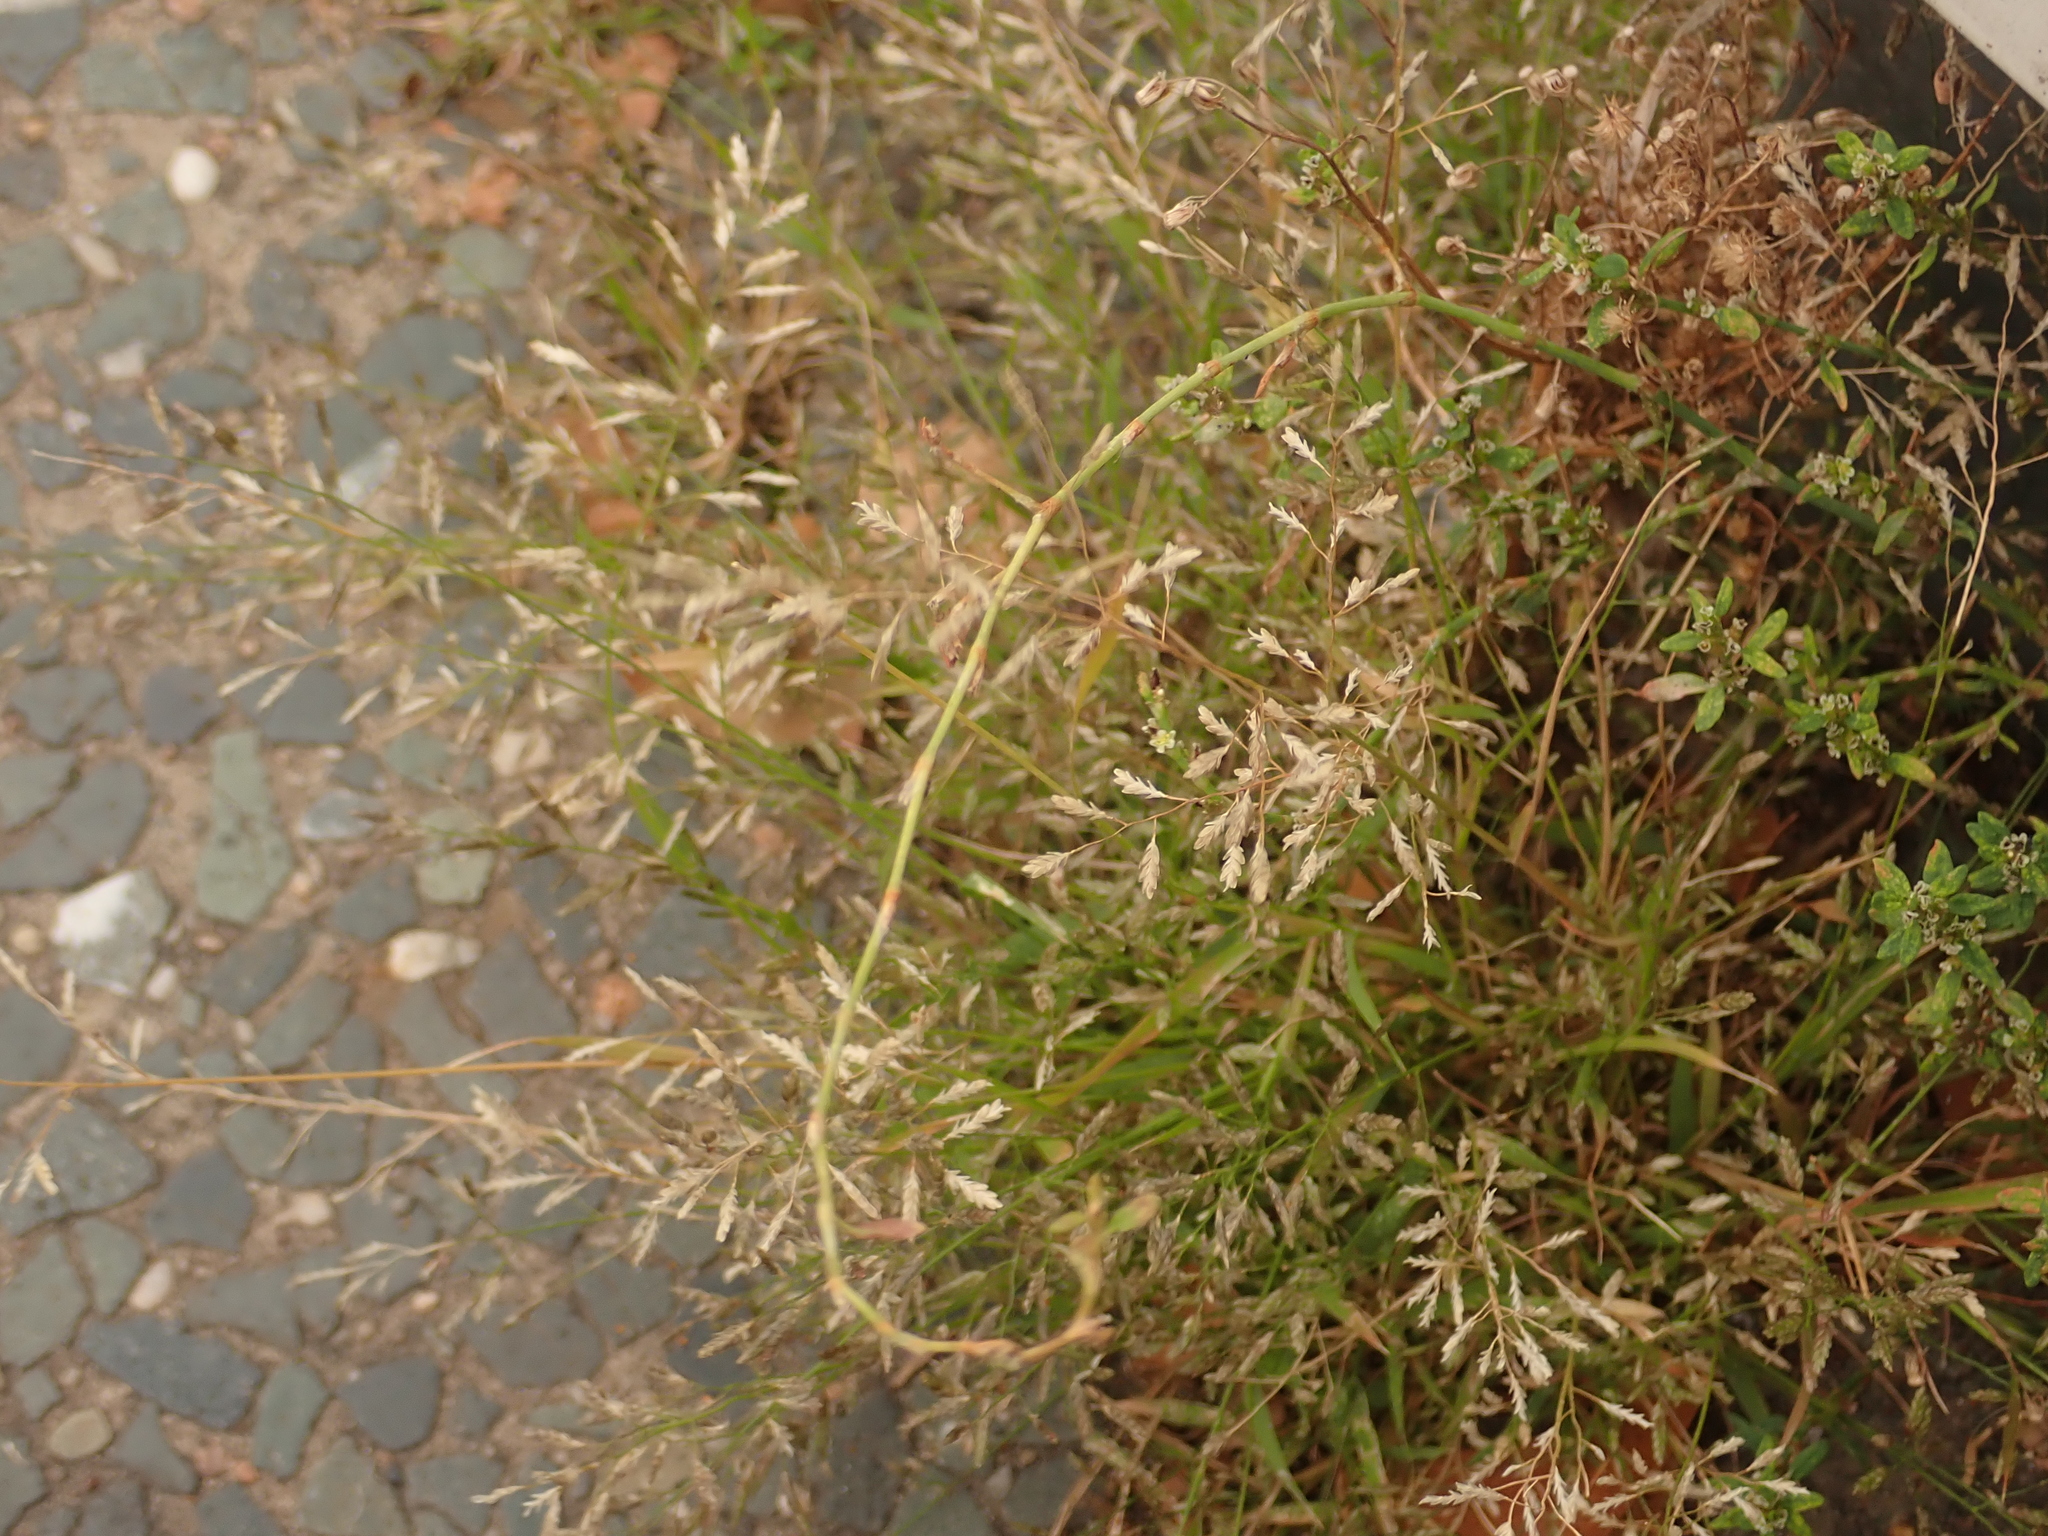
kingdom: Plantae
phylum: Tracheophyta
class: Liliopsida
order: Poales
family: Poaceae
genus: Eragrostis
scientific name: Eragrostis minor
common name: Small love-grass
